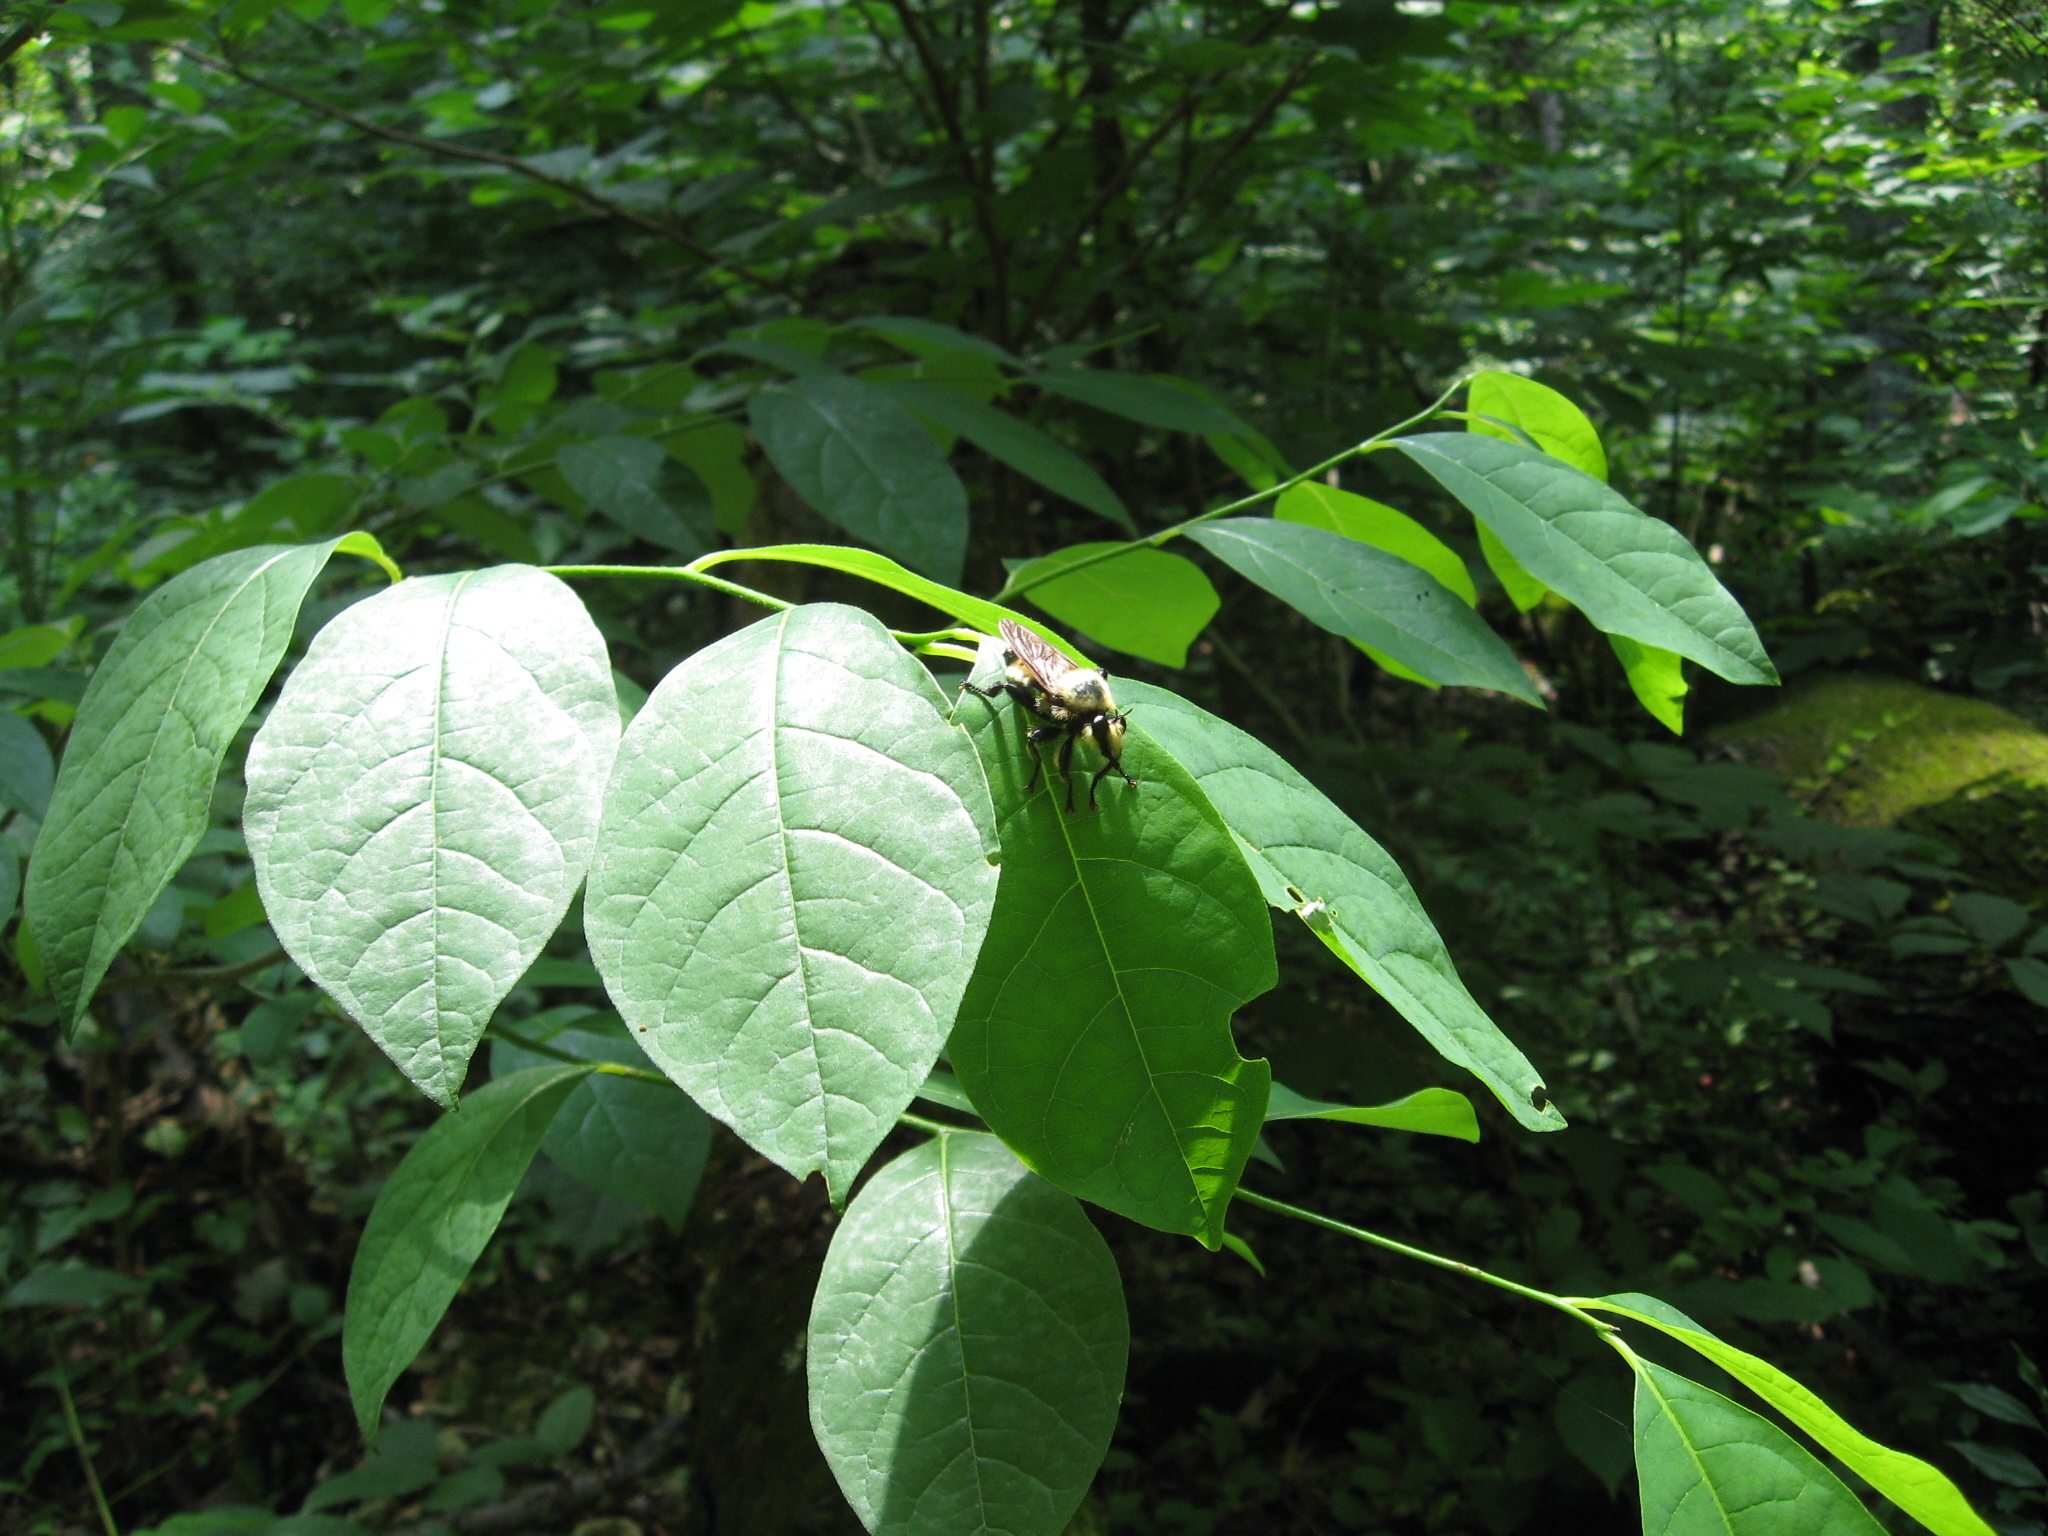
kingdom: Animalia
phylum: Arthropoda
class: Insecta
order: Diptera
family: Asilidae
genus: Laphria
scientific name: Laphria grossa
